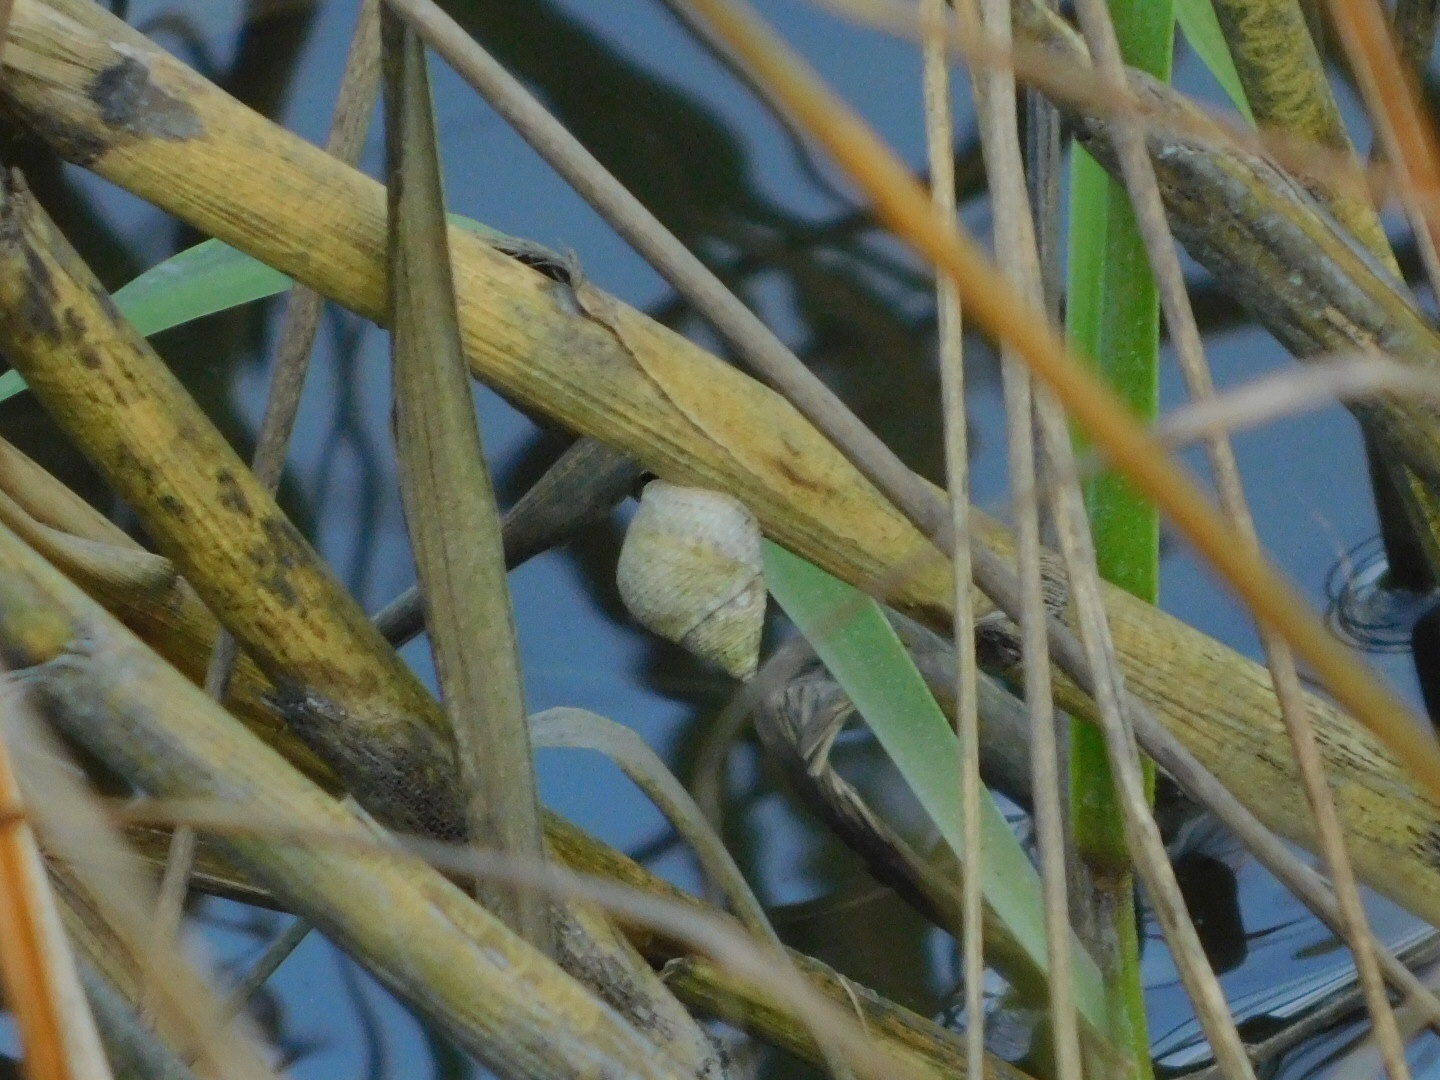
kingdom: Animalia
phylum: Mollusca
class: Gastropoda
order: Littorinimorpha
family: Littorinidae
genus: Littoraria
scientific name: Littoraria irrorata
